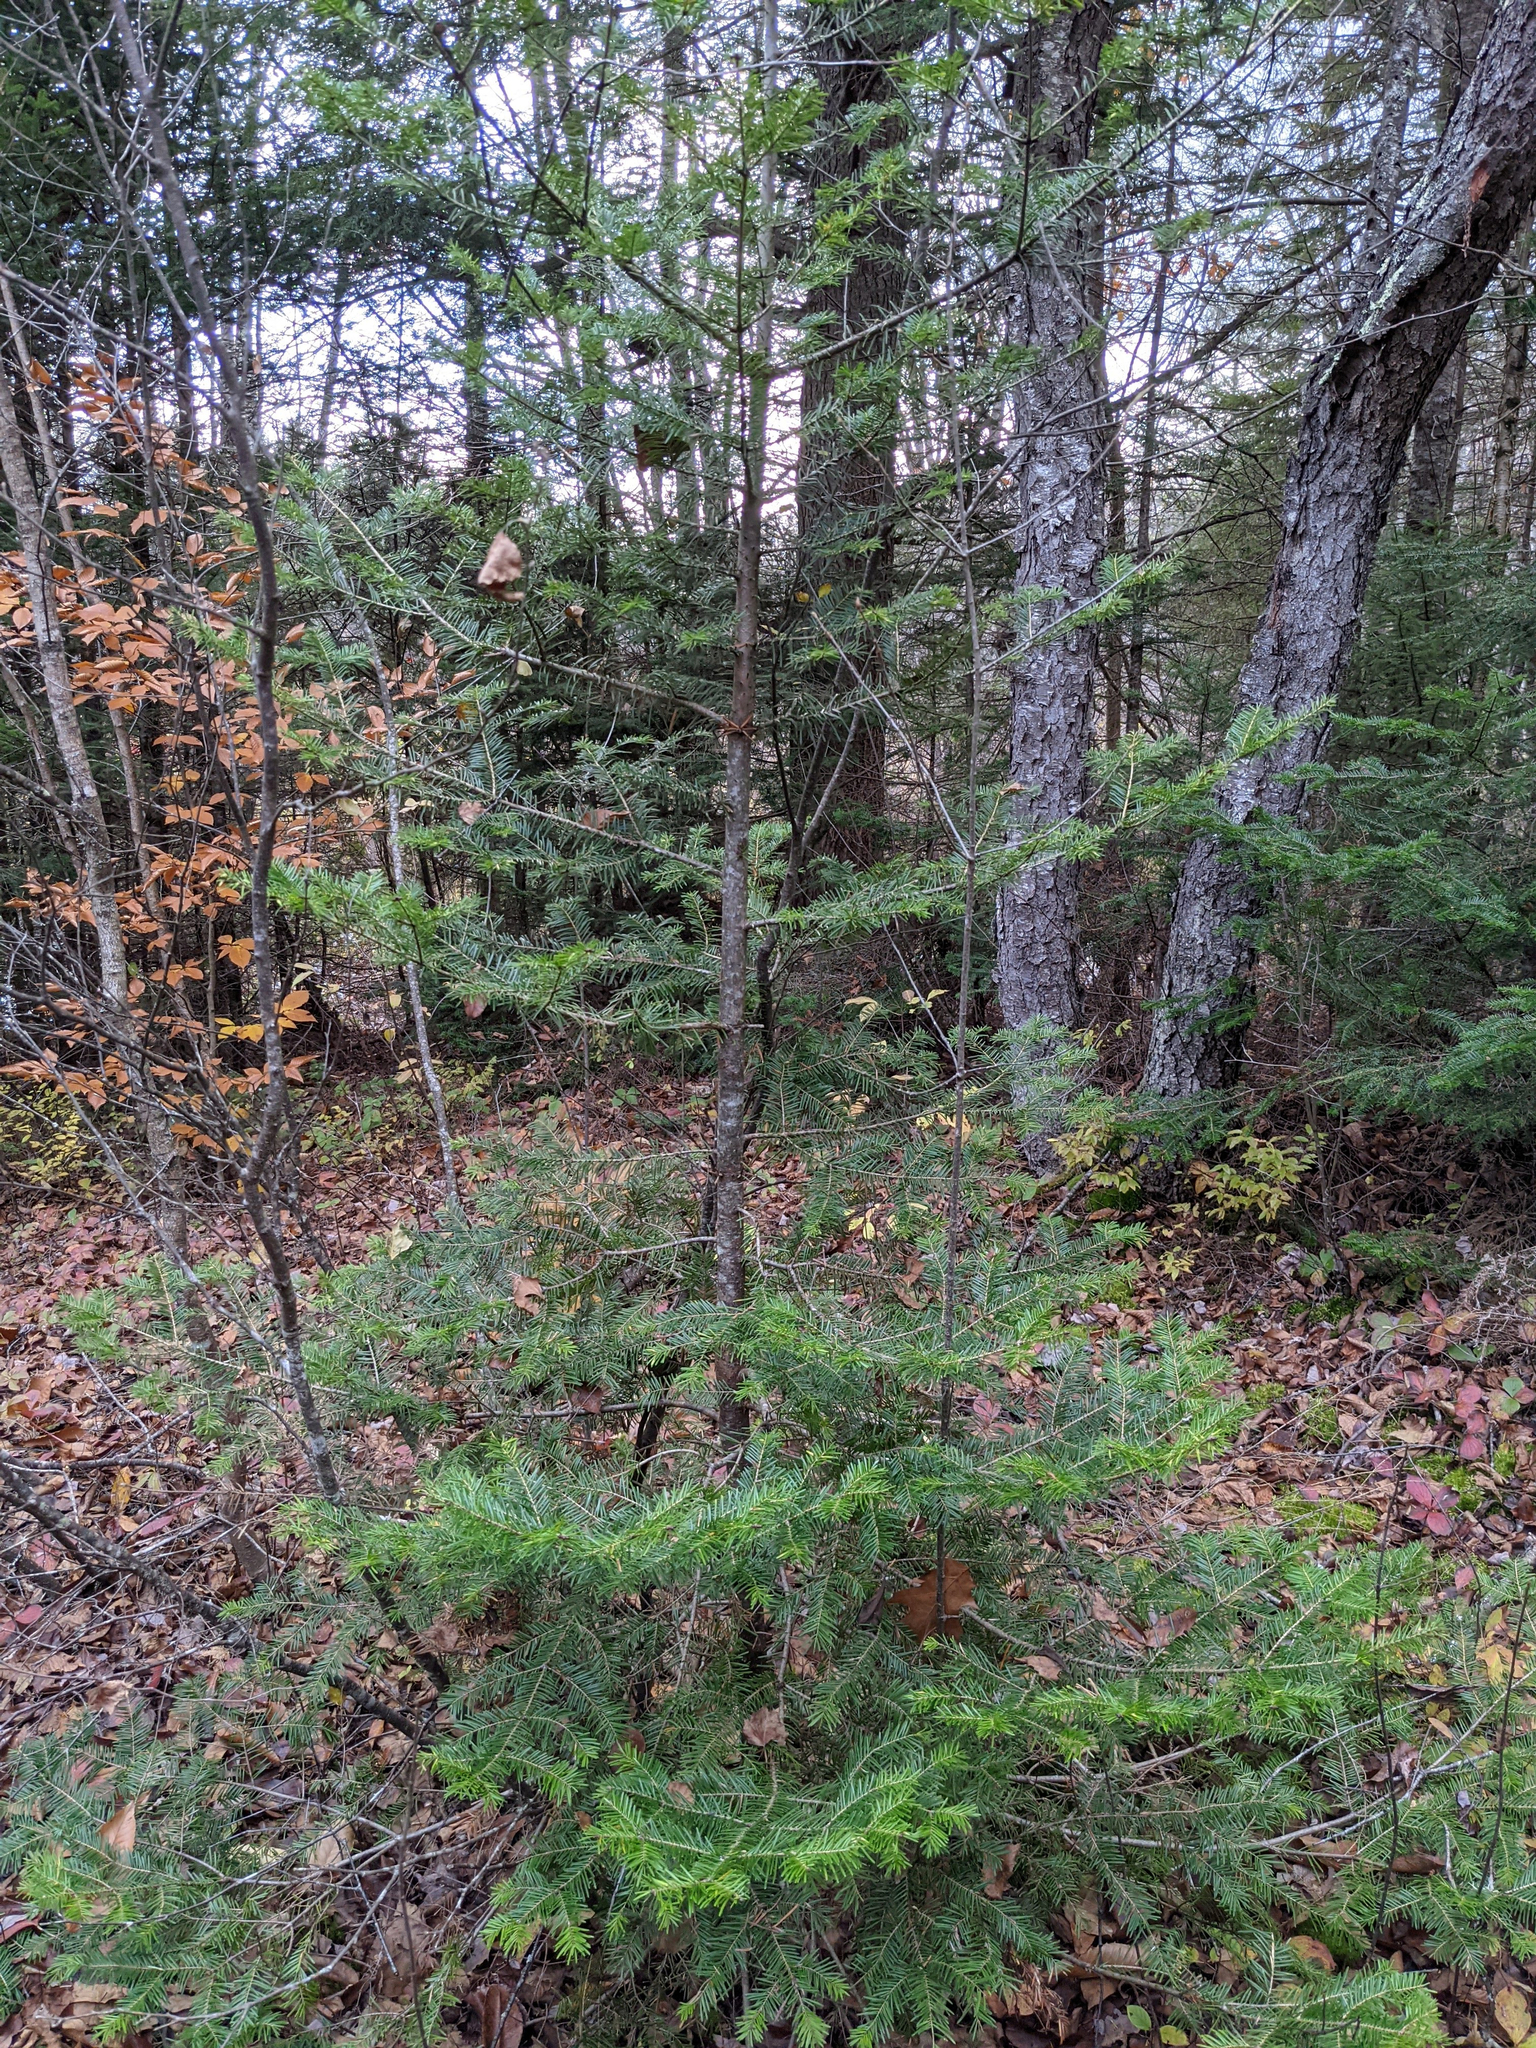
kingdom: Plantae
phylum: Tracheophyta
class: Pinopsida
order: Pinales
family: Pinaceae
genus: Abies
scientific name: Abies balsamea
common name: Balsam fir
